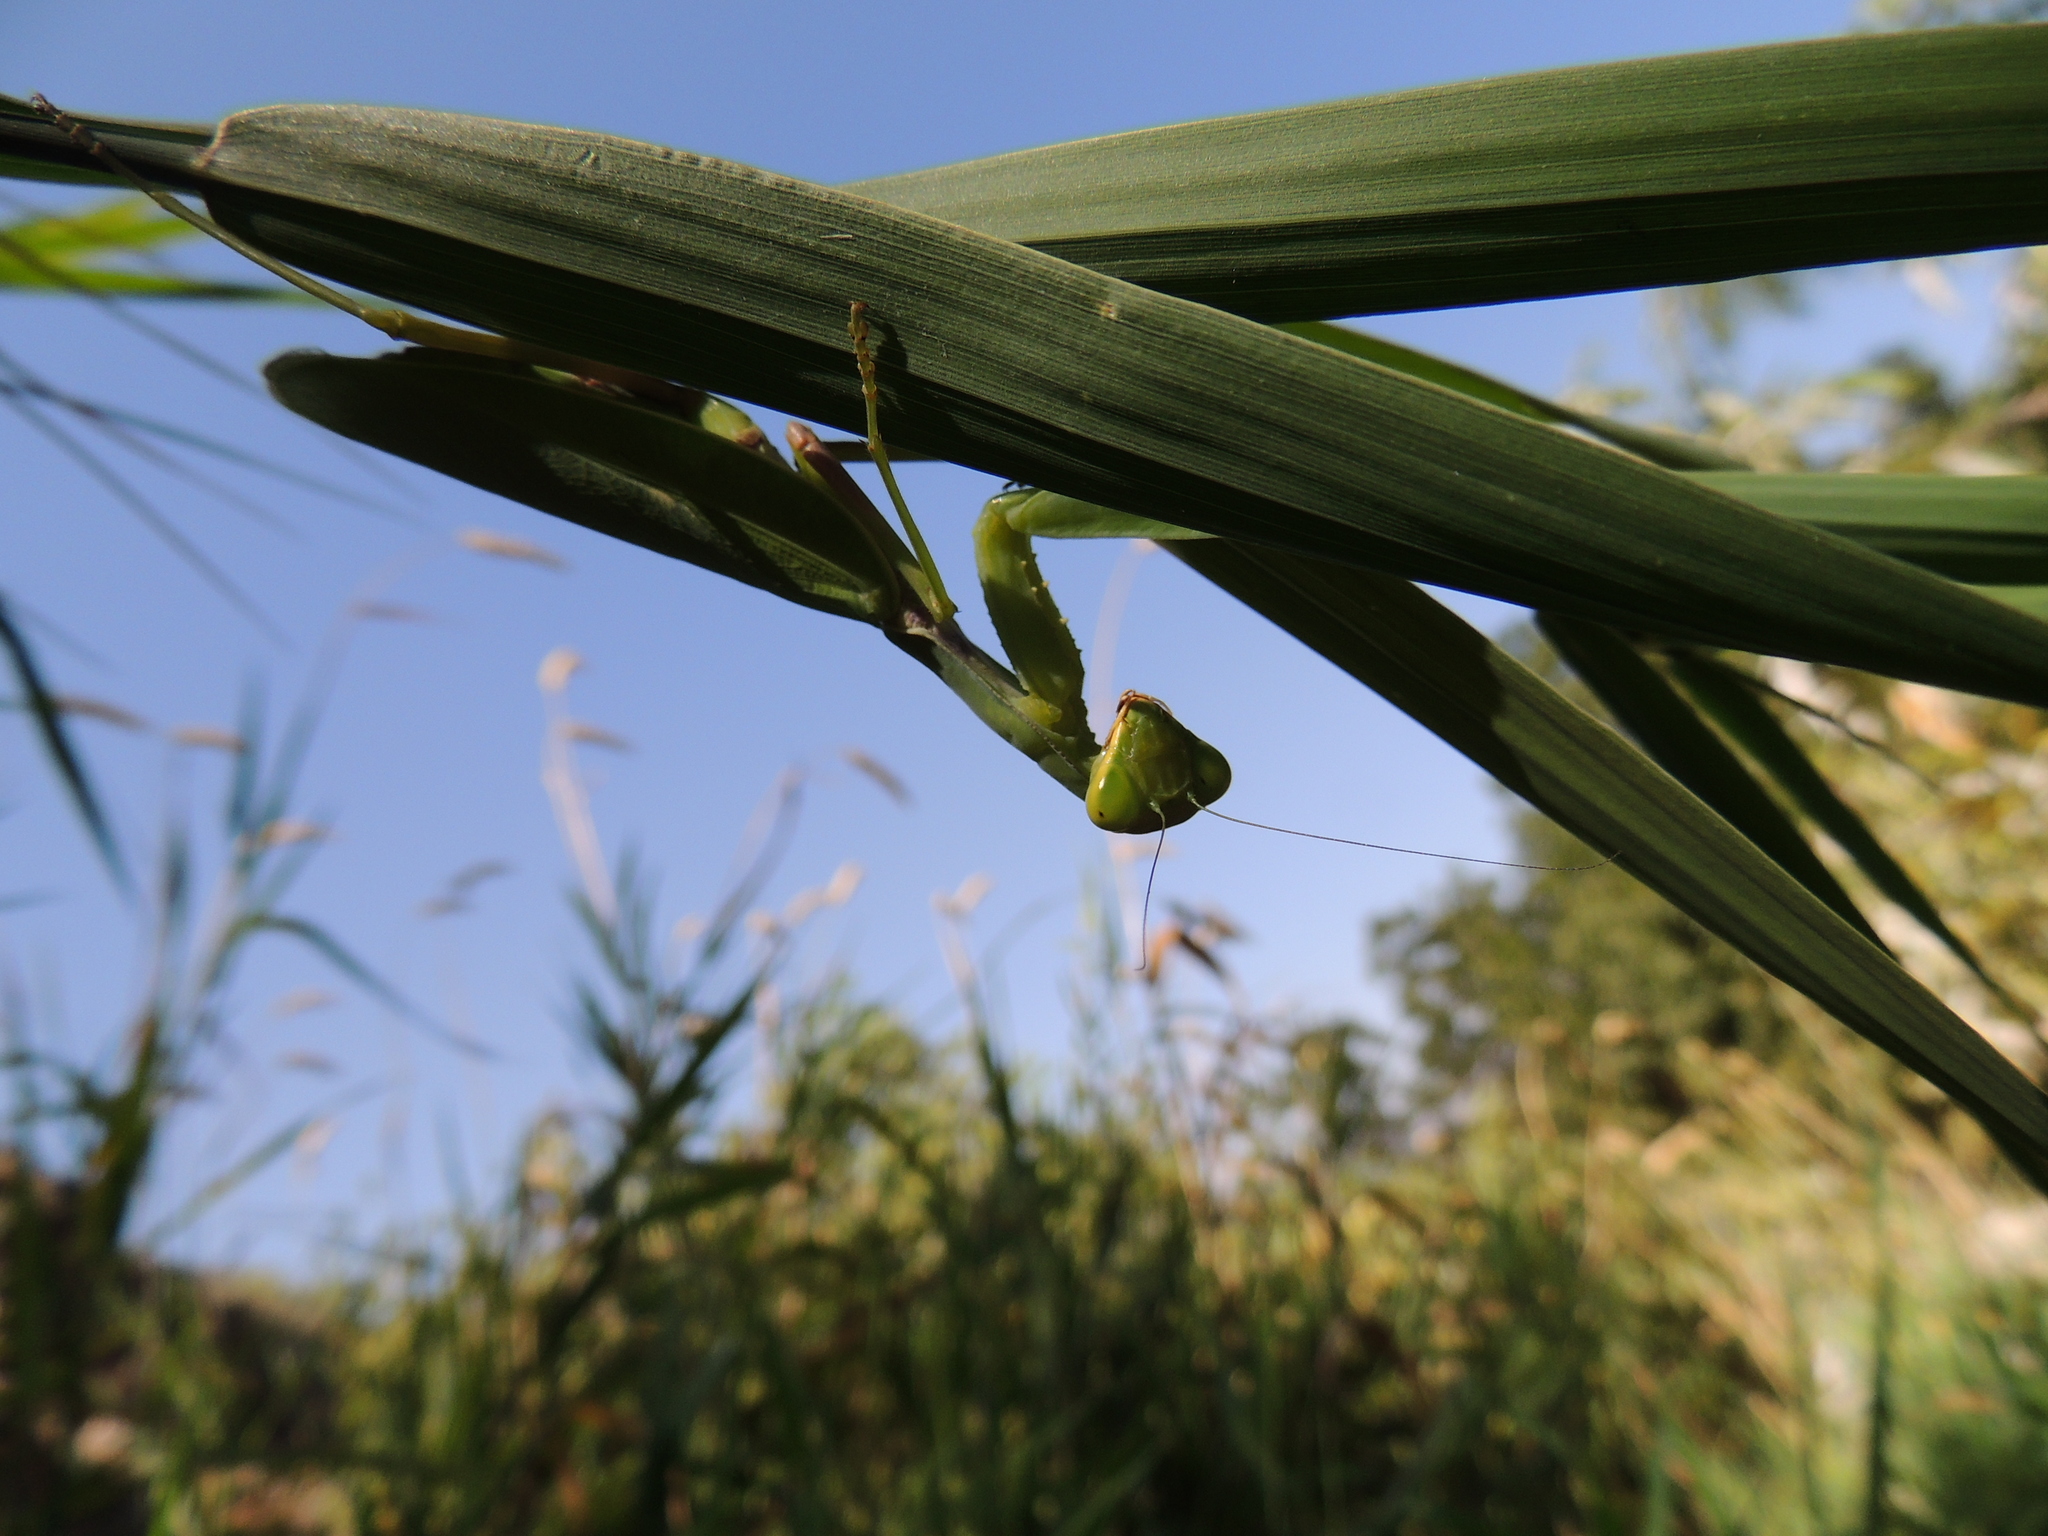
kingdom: Animalia
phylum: Arthropoda
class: Insecta
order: Mantodea
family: Mantidae
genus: Hierodula
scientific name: Hierodula tenuidentata
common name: Giant asian mantis
